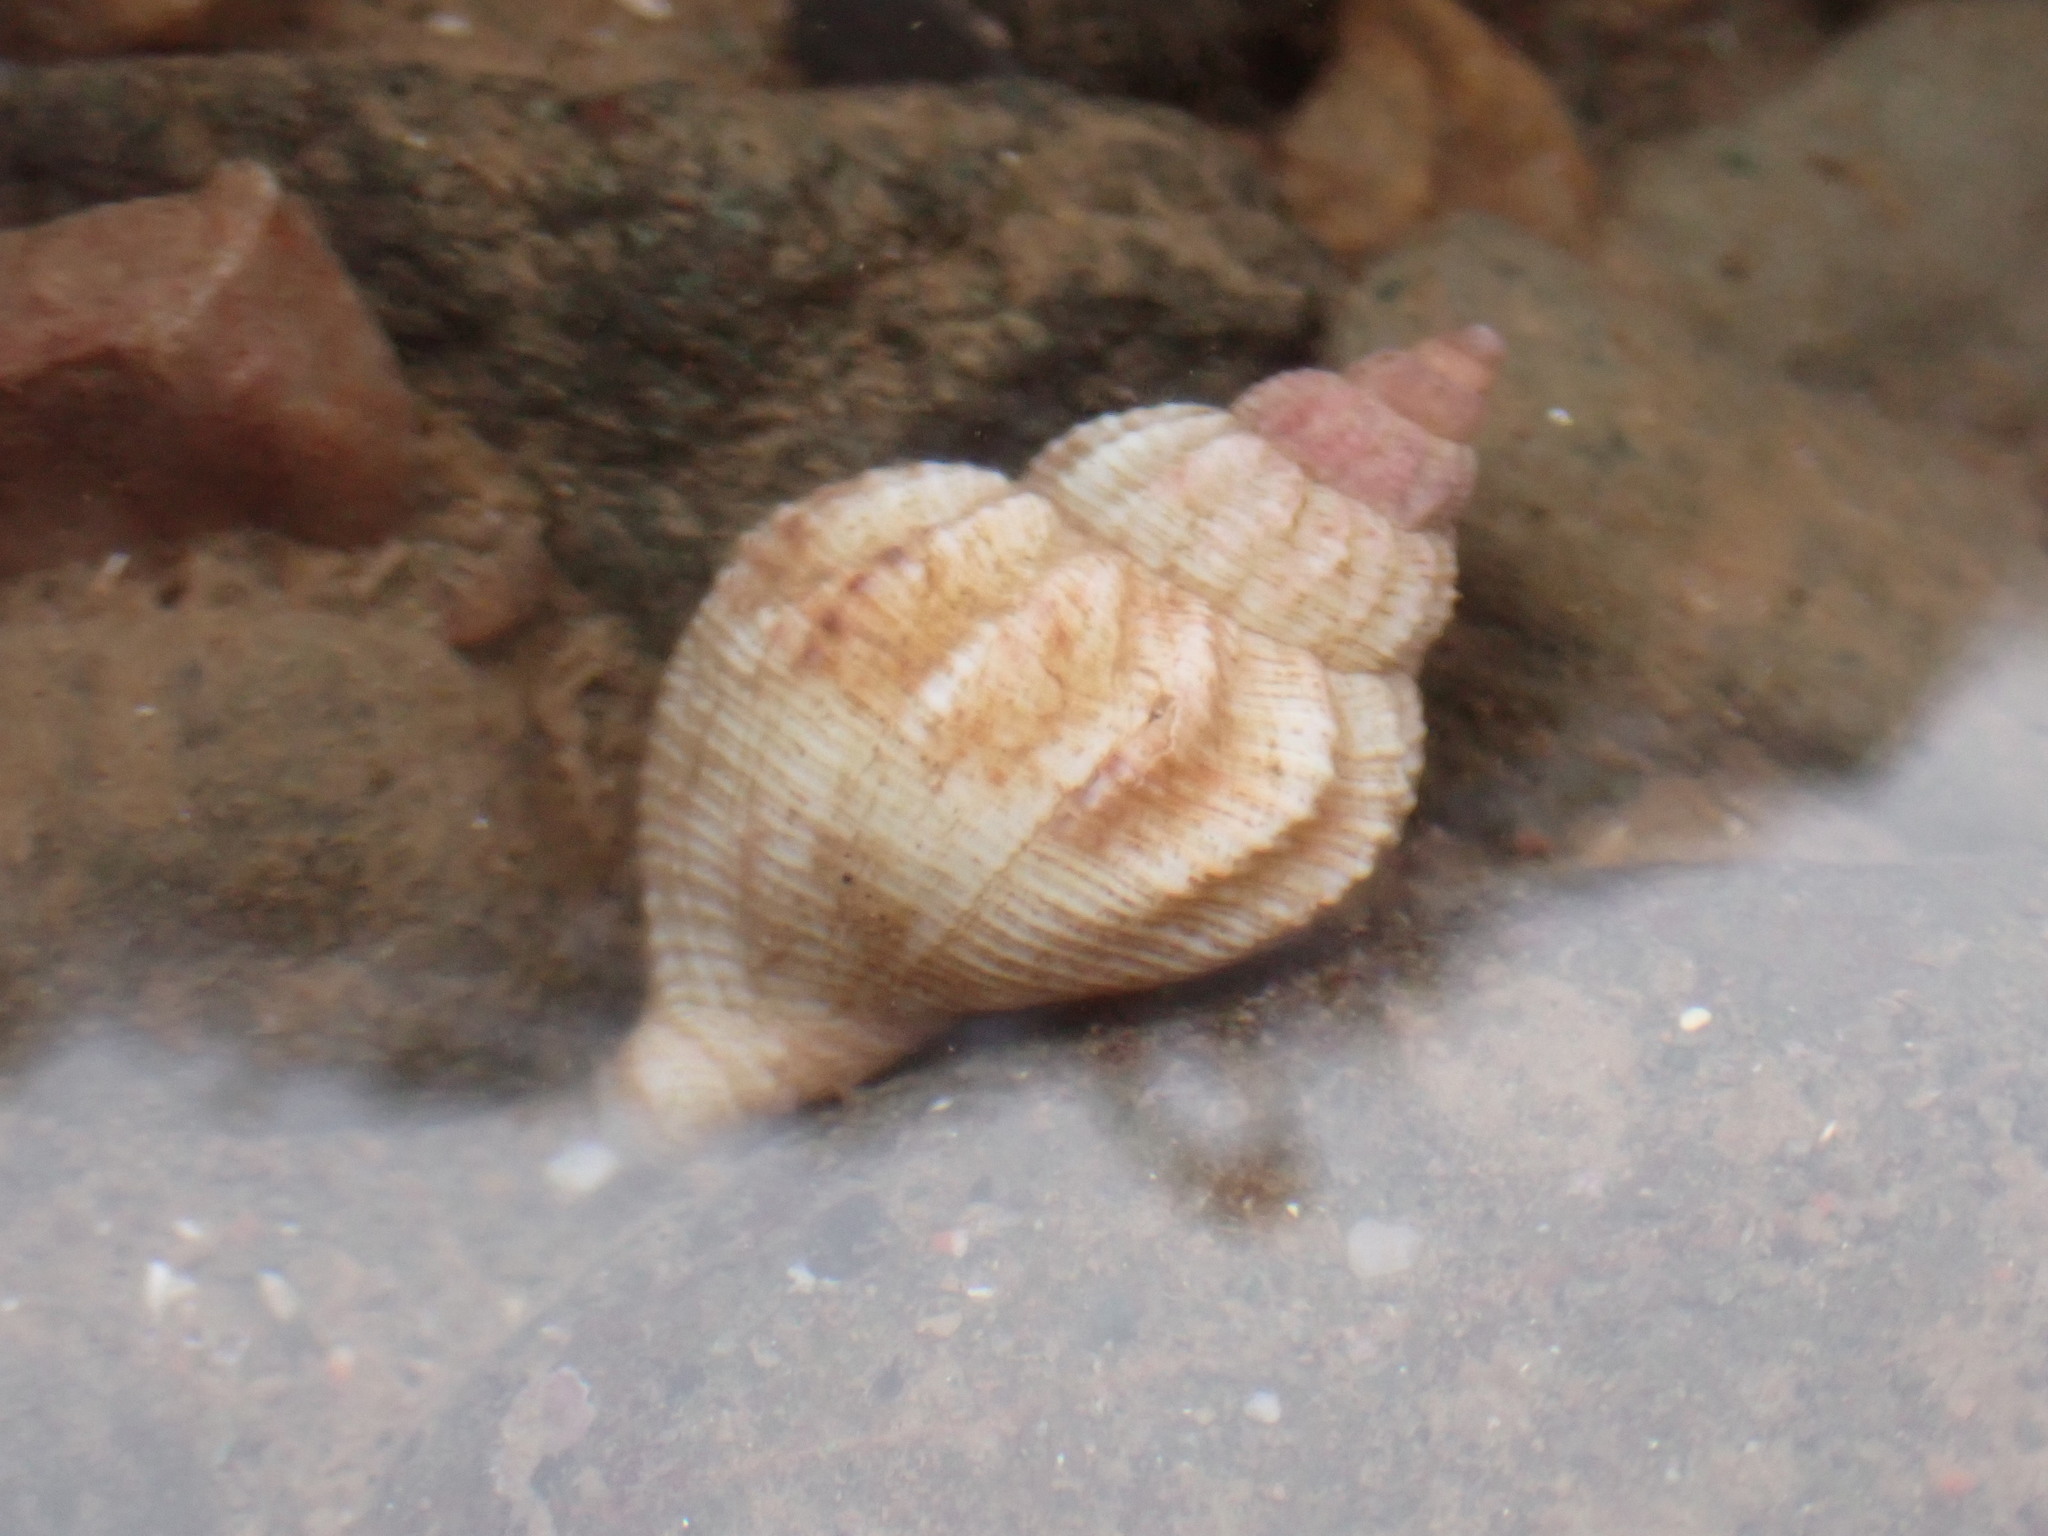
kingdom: Animalia
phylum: Mollusca
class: Gastropoda
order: Neogastropoda
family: Buccinidae
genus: Buccinum
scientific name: Buccinum undatum
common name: Common whelk
